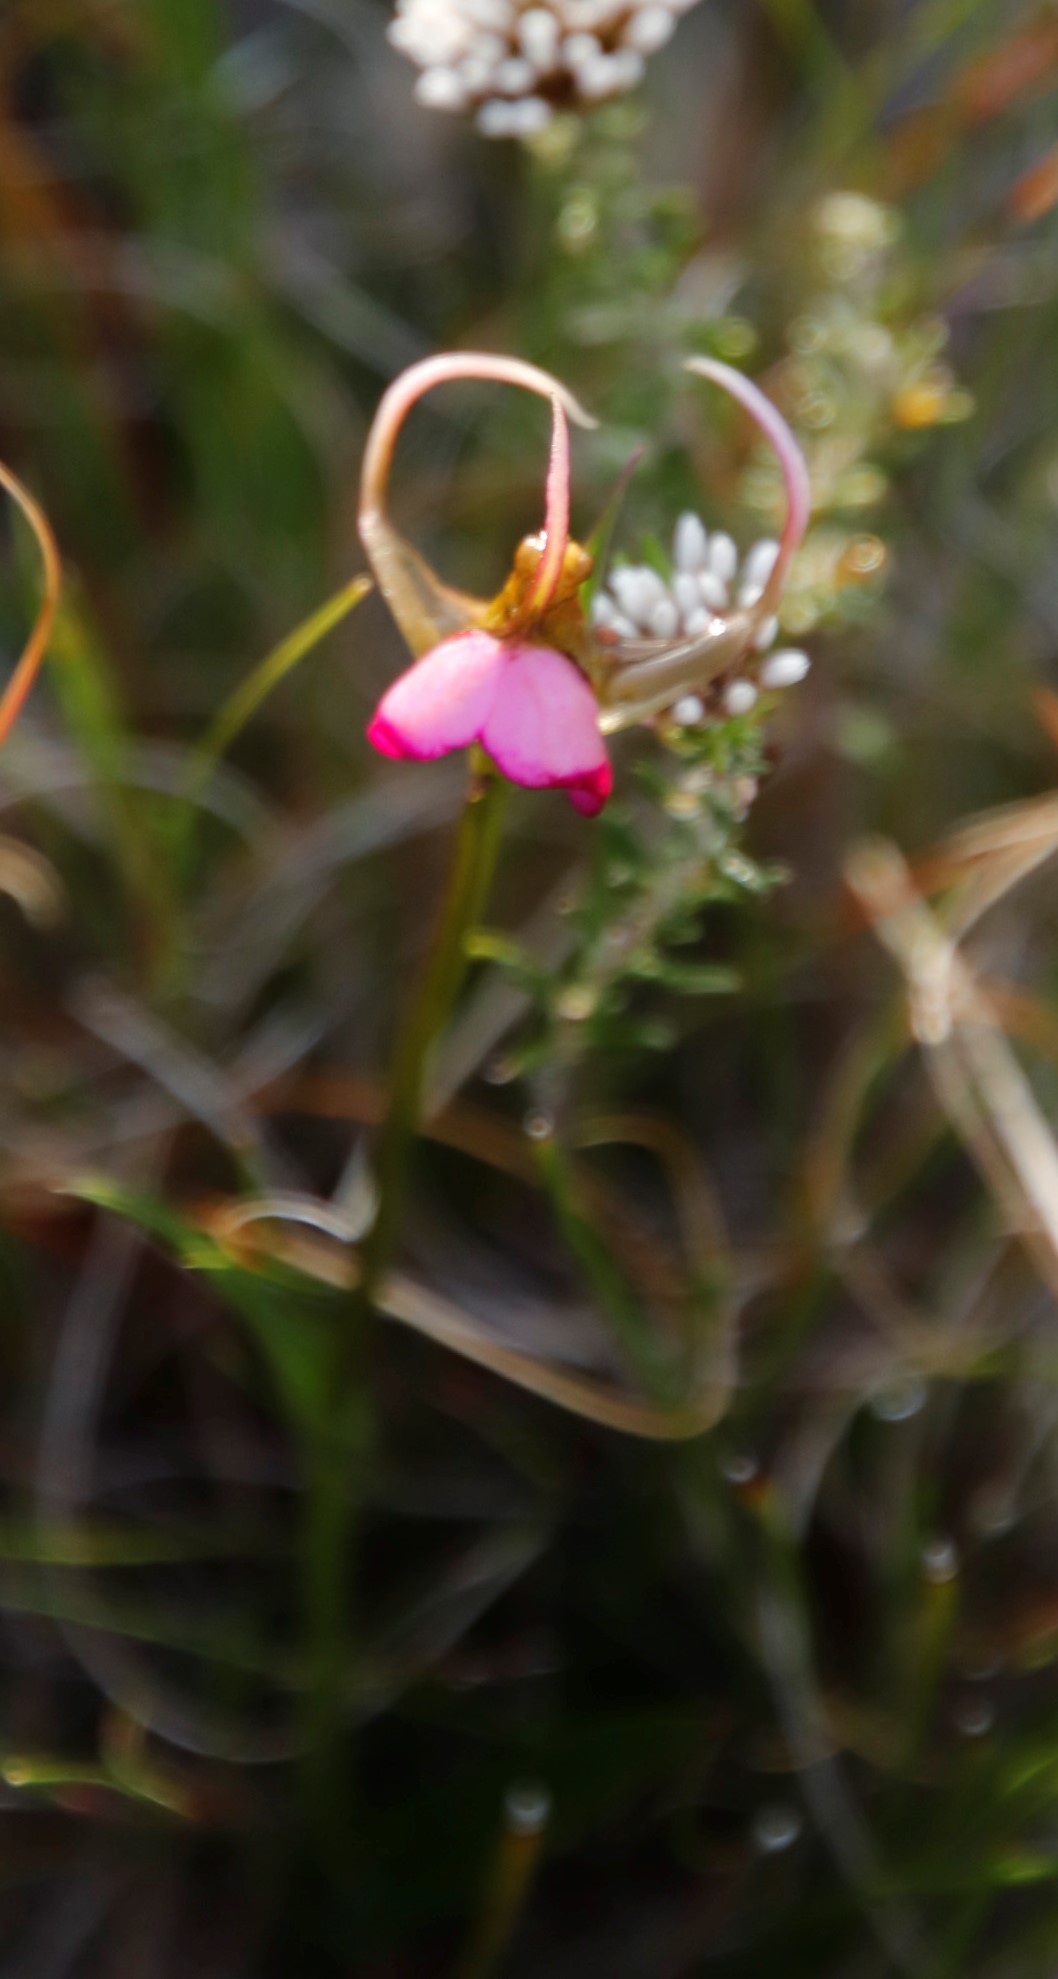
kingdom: Plantae
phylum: Tracheophyta
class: Liliopsida
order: Asparagales
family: Orchidaceae
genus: Disperis
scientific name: Disperis capensis
